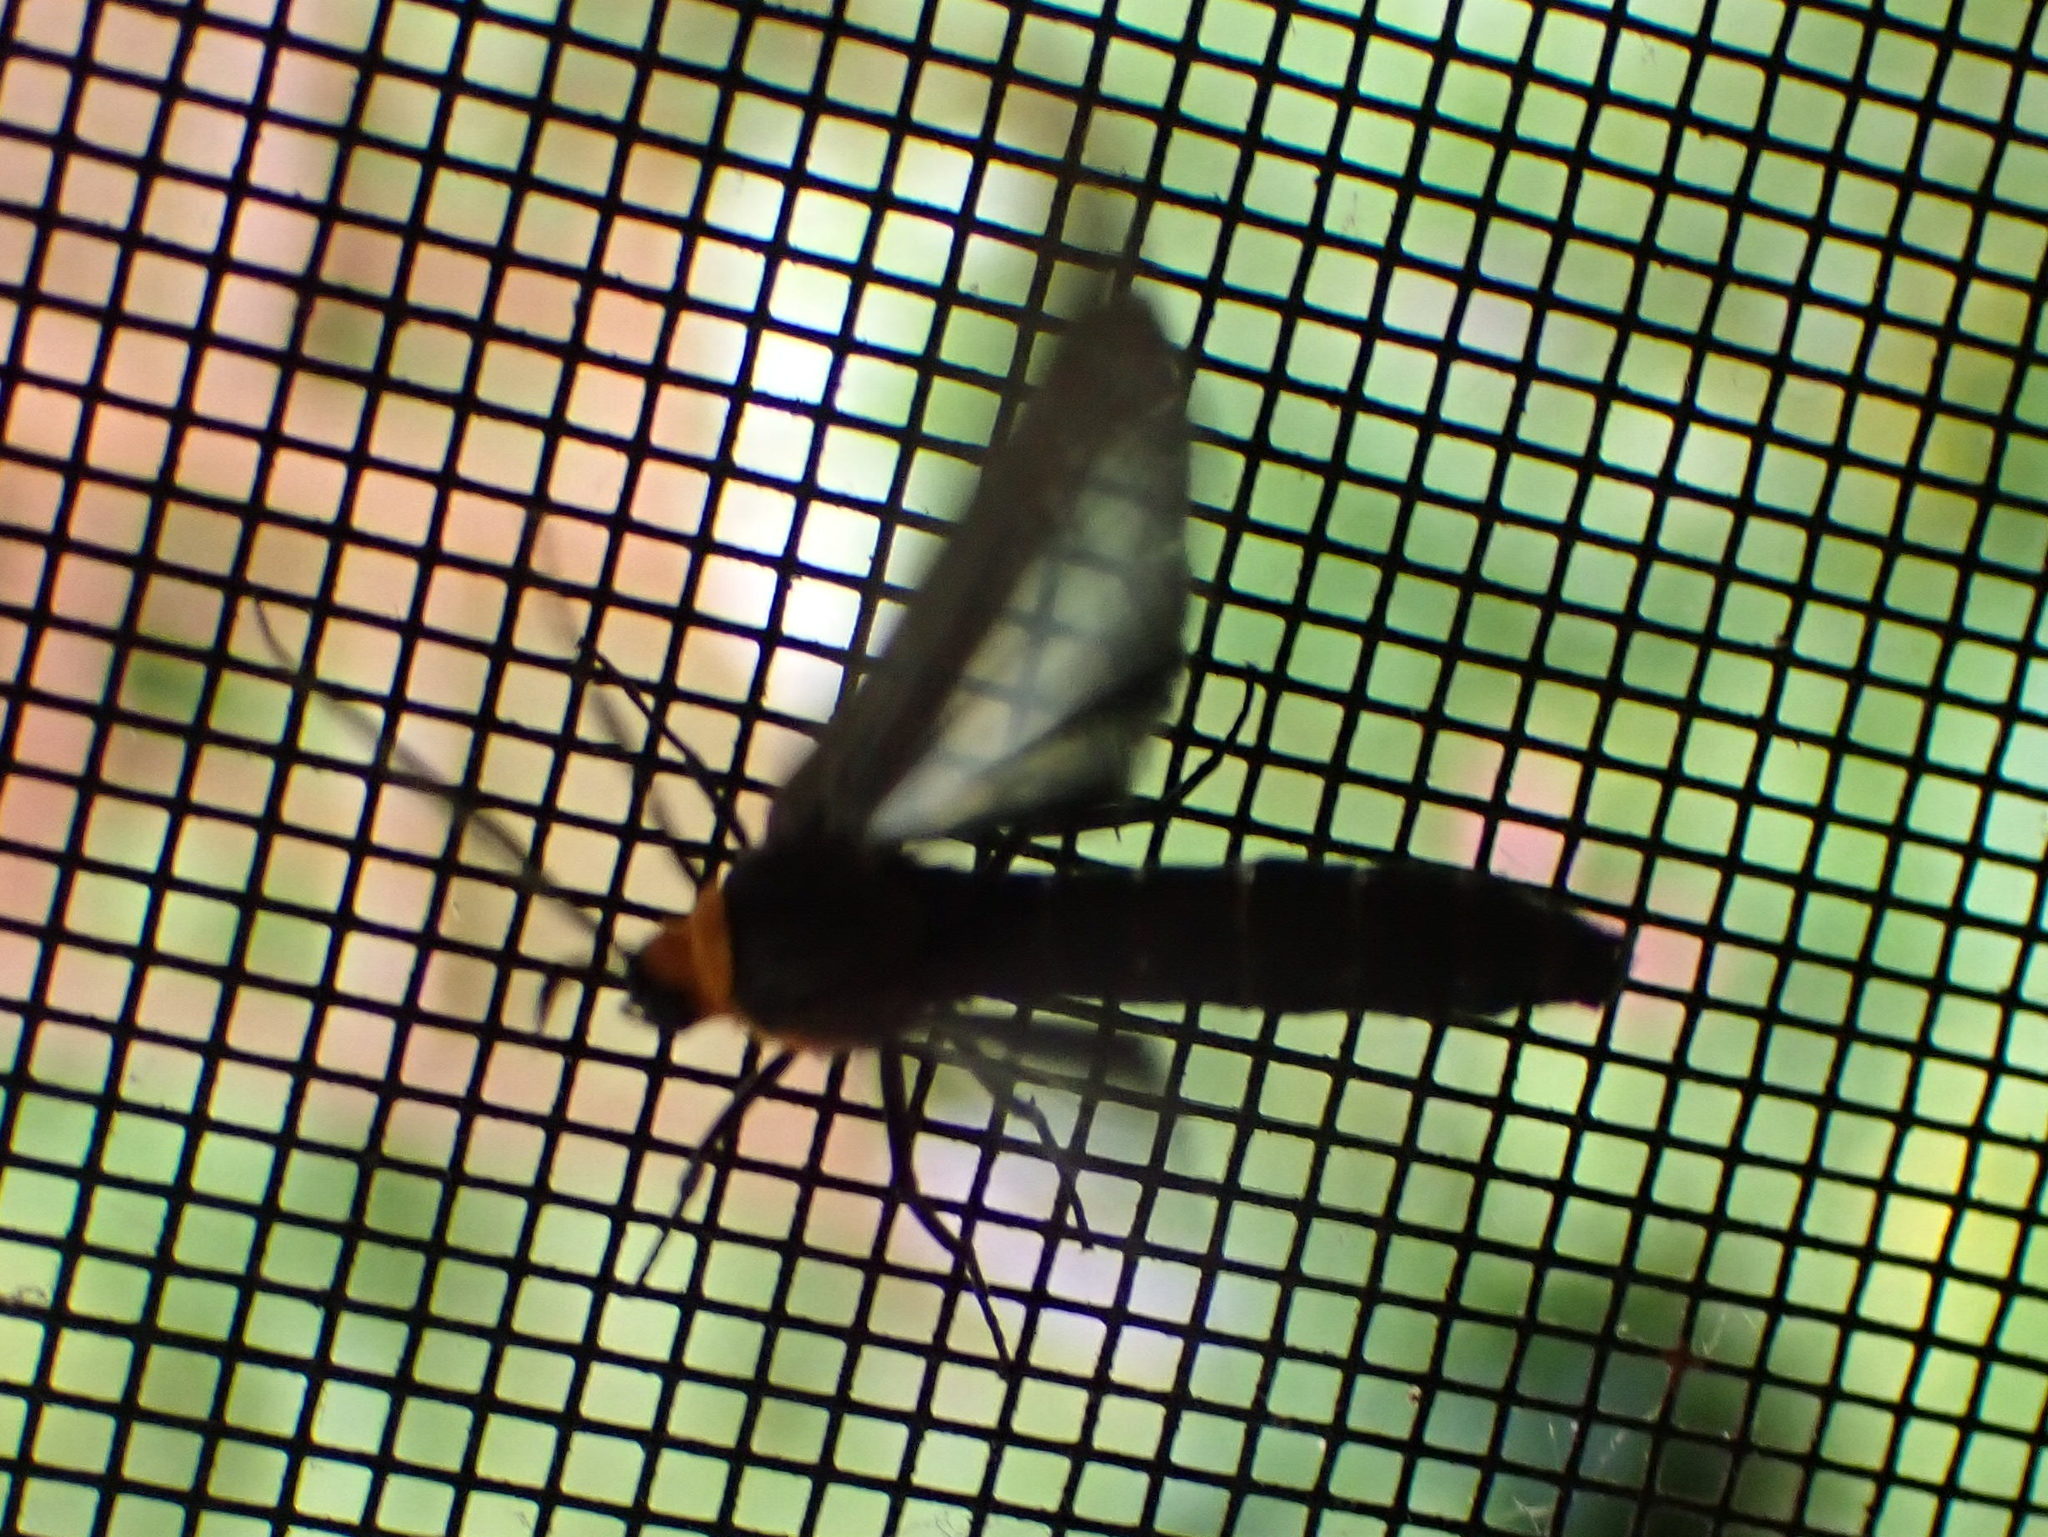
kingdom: Animalia
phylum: Arthropoda
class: Insecta
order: Lepidoptera
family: Erebidae
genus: Cisseps
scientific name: Cisseps fulvicollis
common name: Yellow-collared scape moth
